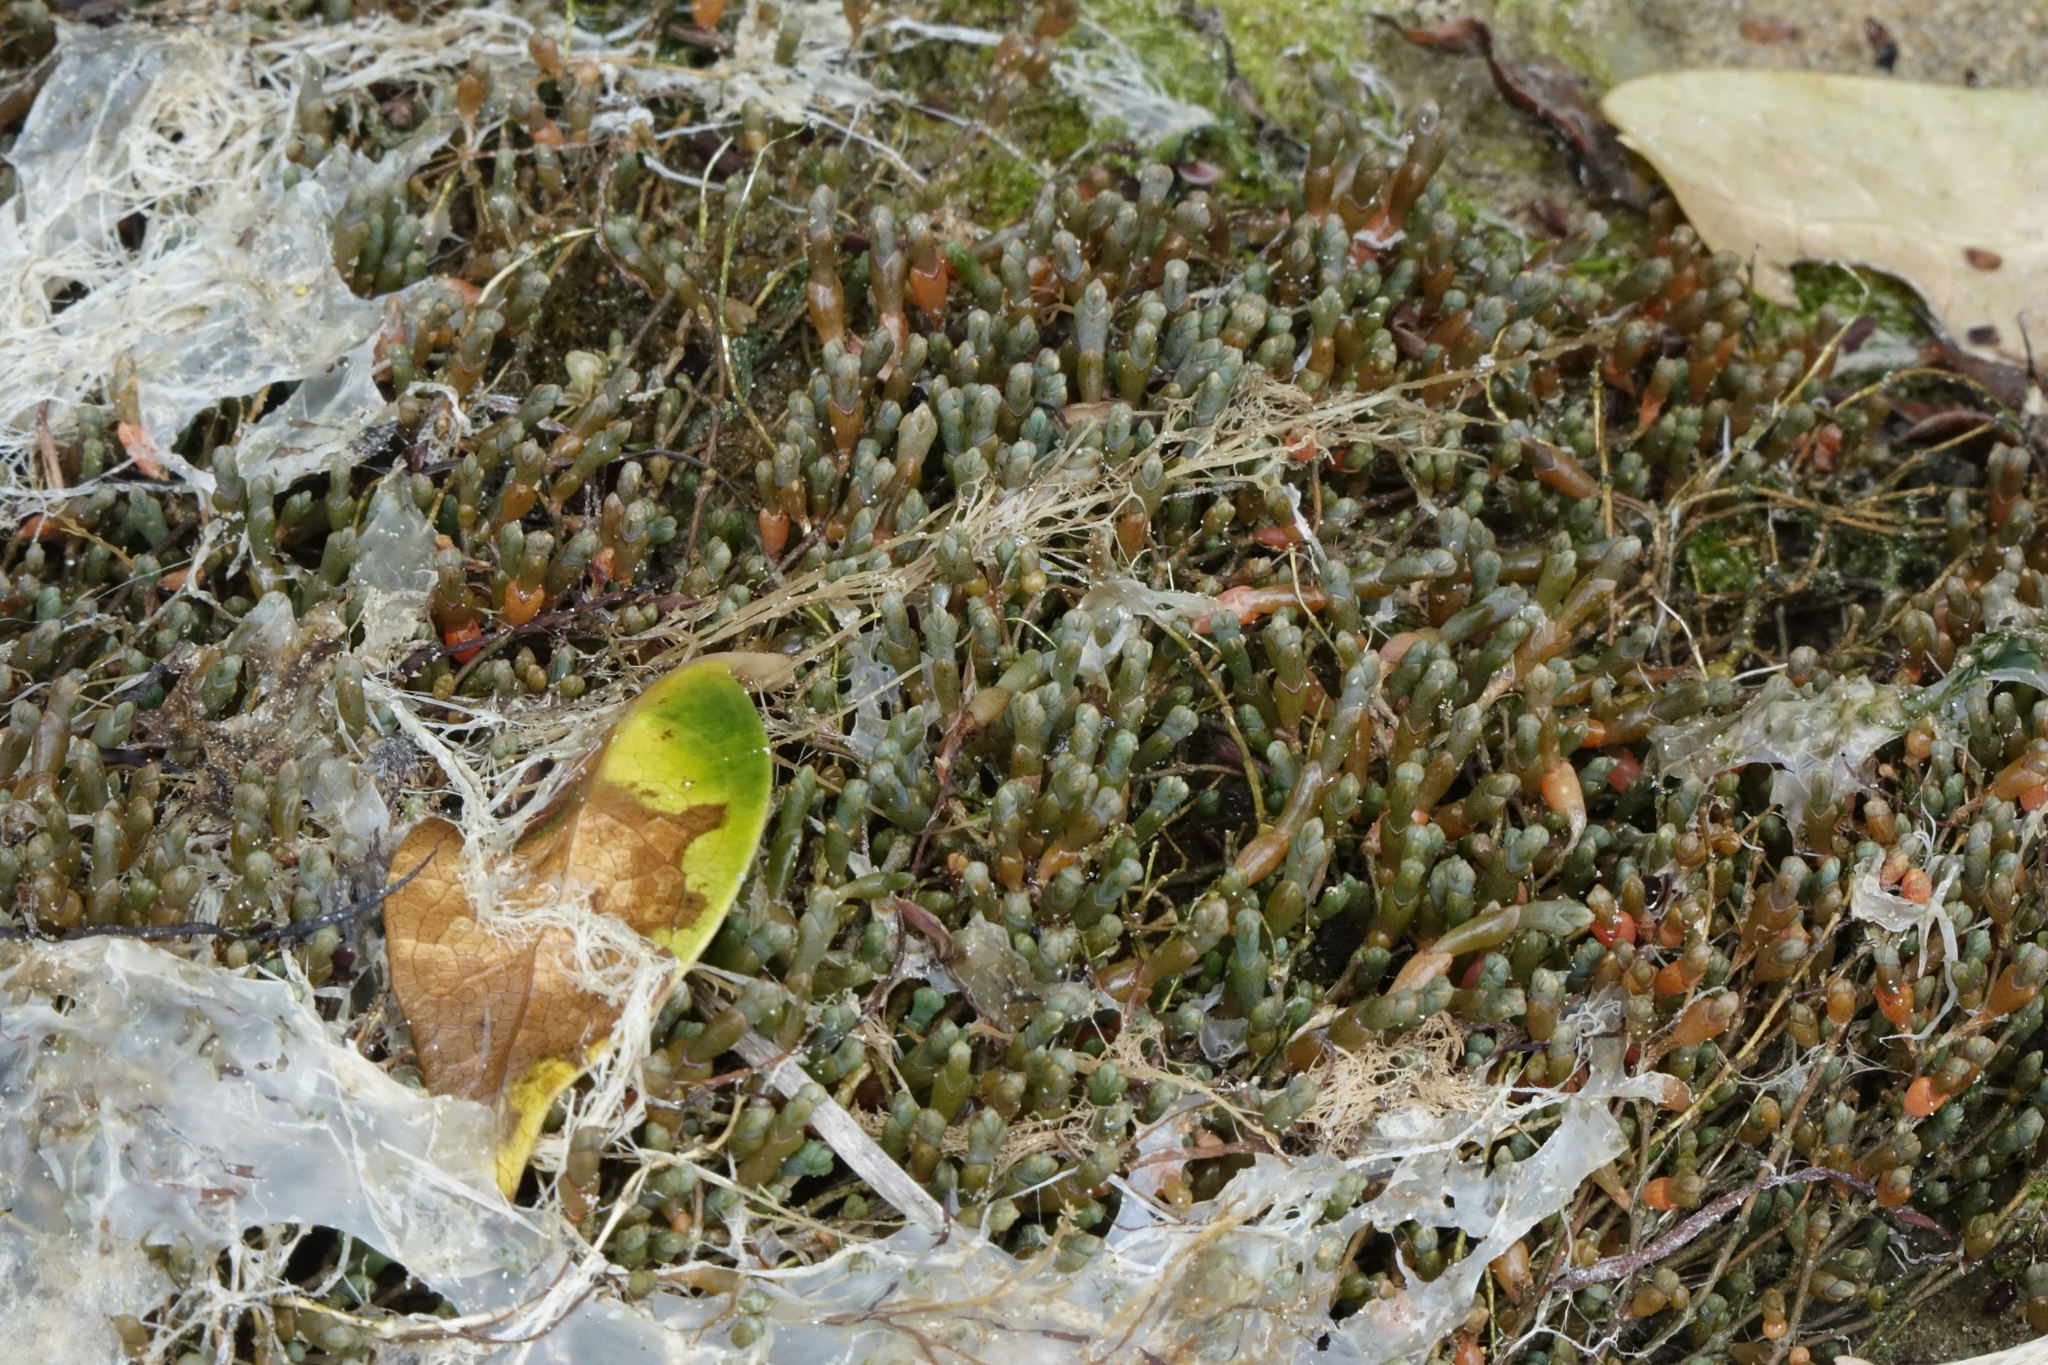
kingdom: Plantae
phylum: Tracheophyta
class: Magnoliopsida
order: Caryophyllales
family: Amaranthaceae
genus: Salicornia
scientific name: Salicornia quinqueflora
